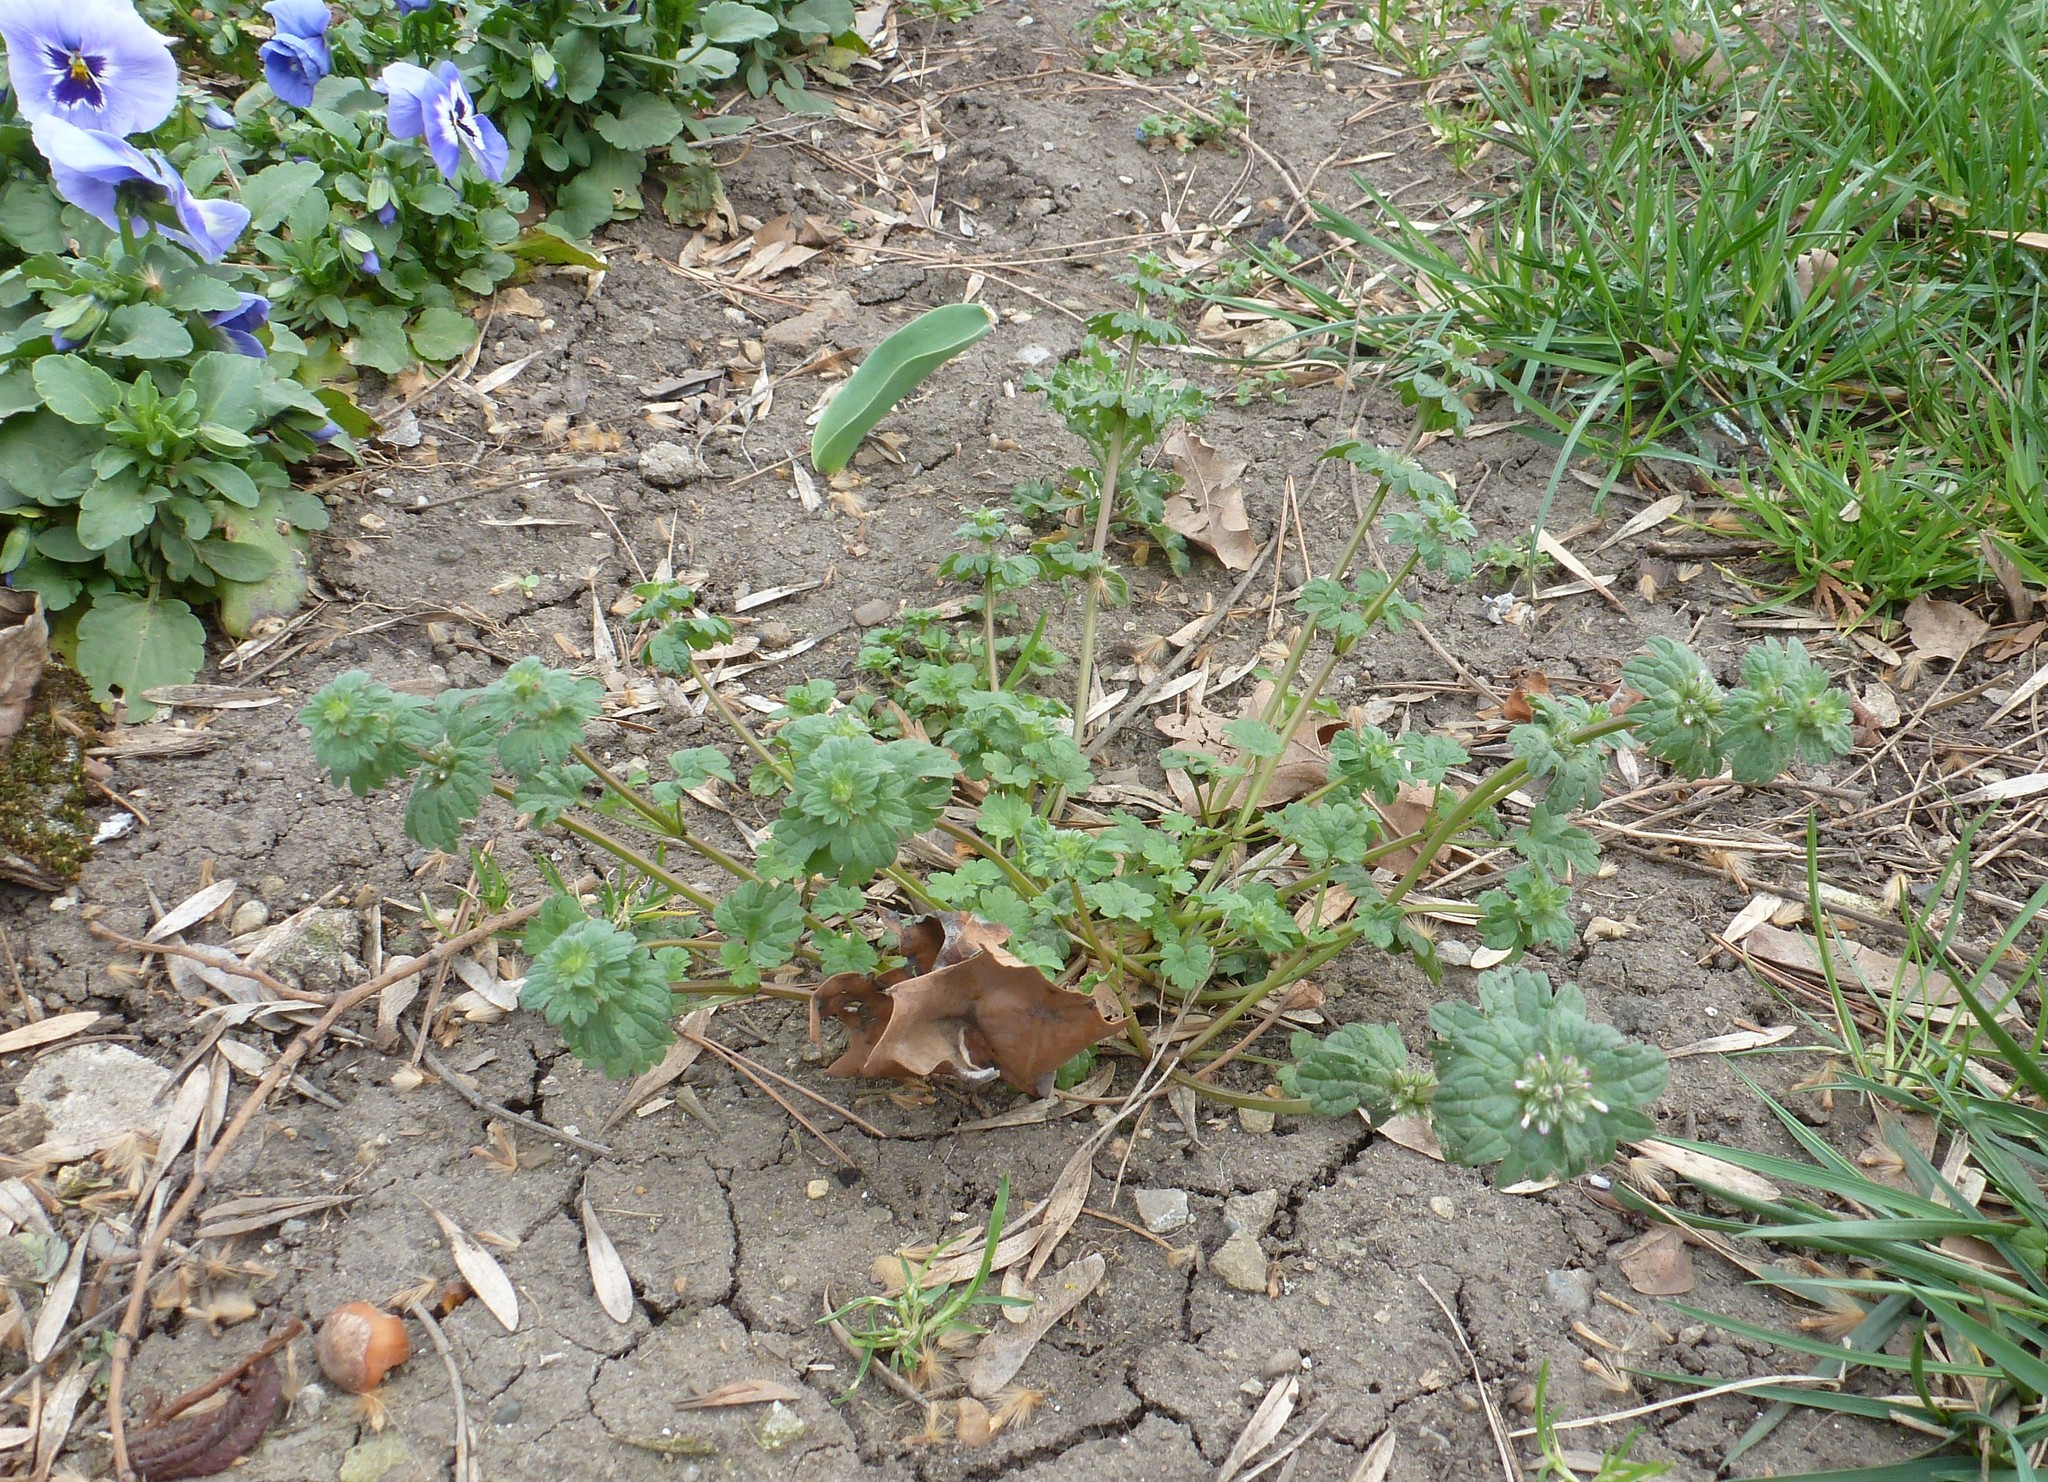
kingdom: Plantae
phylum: Tracheophyta
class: Magnoliopsida
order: Lamiales
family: Lamiaceae
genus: Lamium
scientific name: Lamium amplexicaule
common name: Henbit dead-nettle
